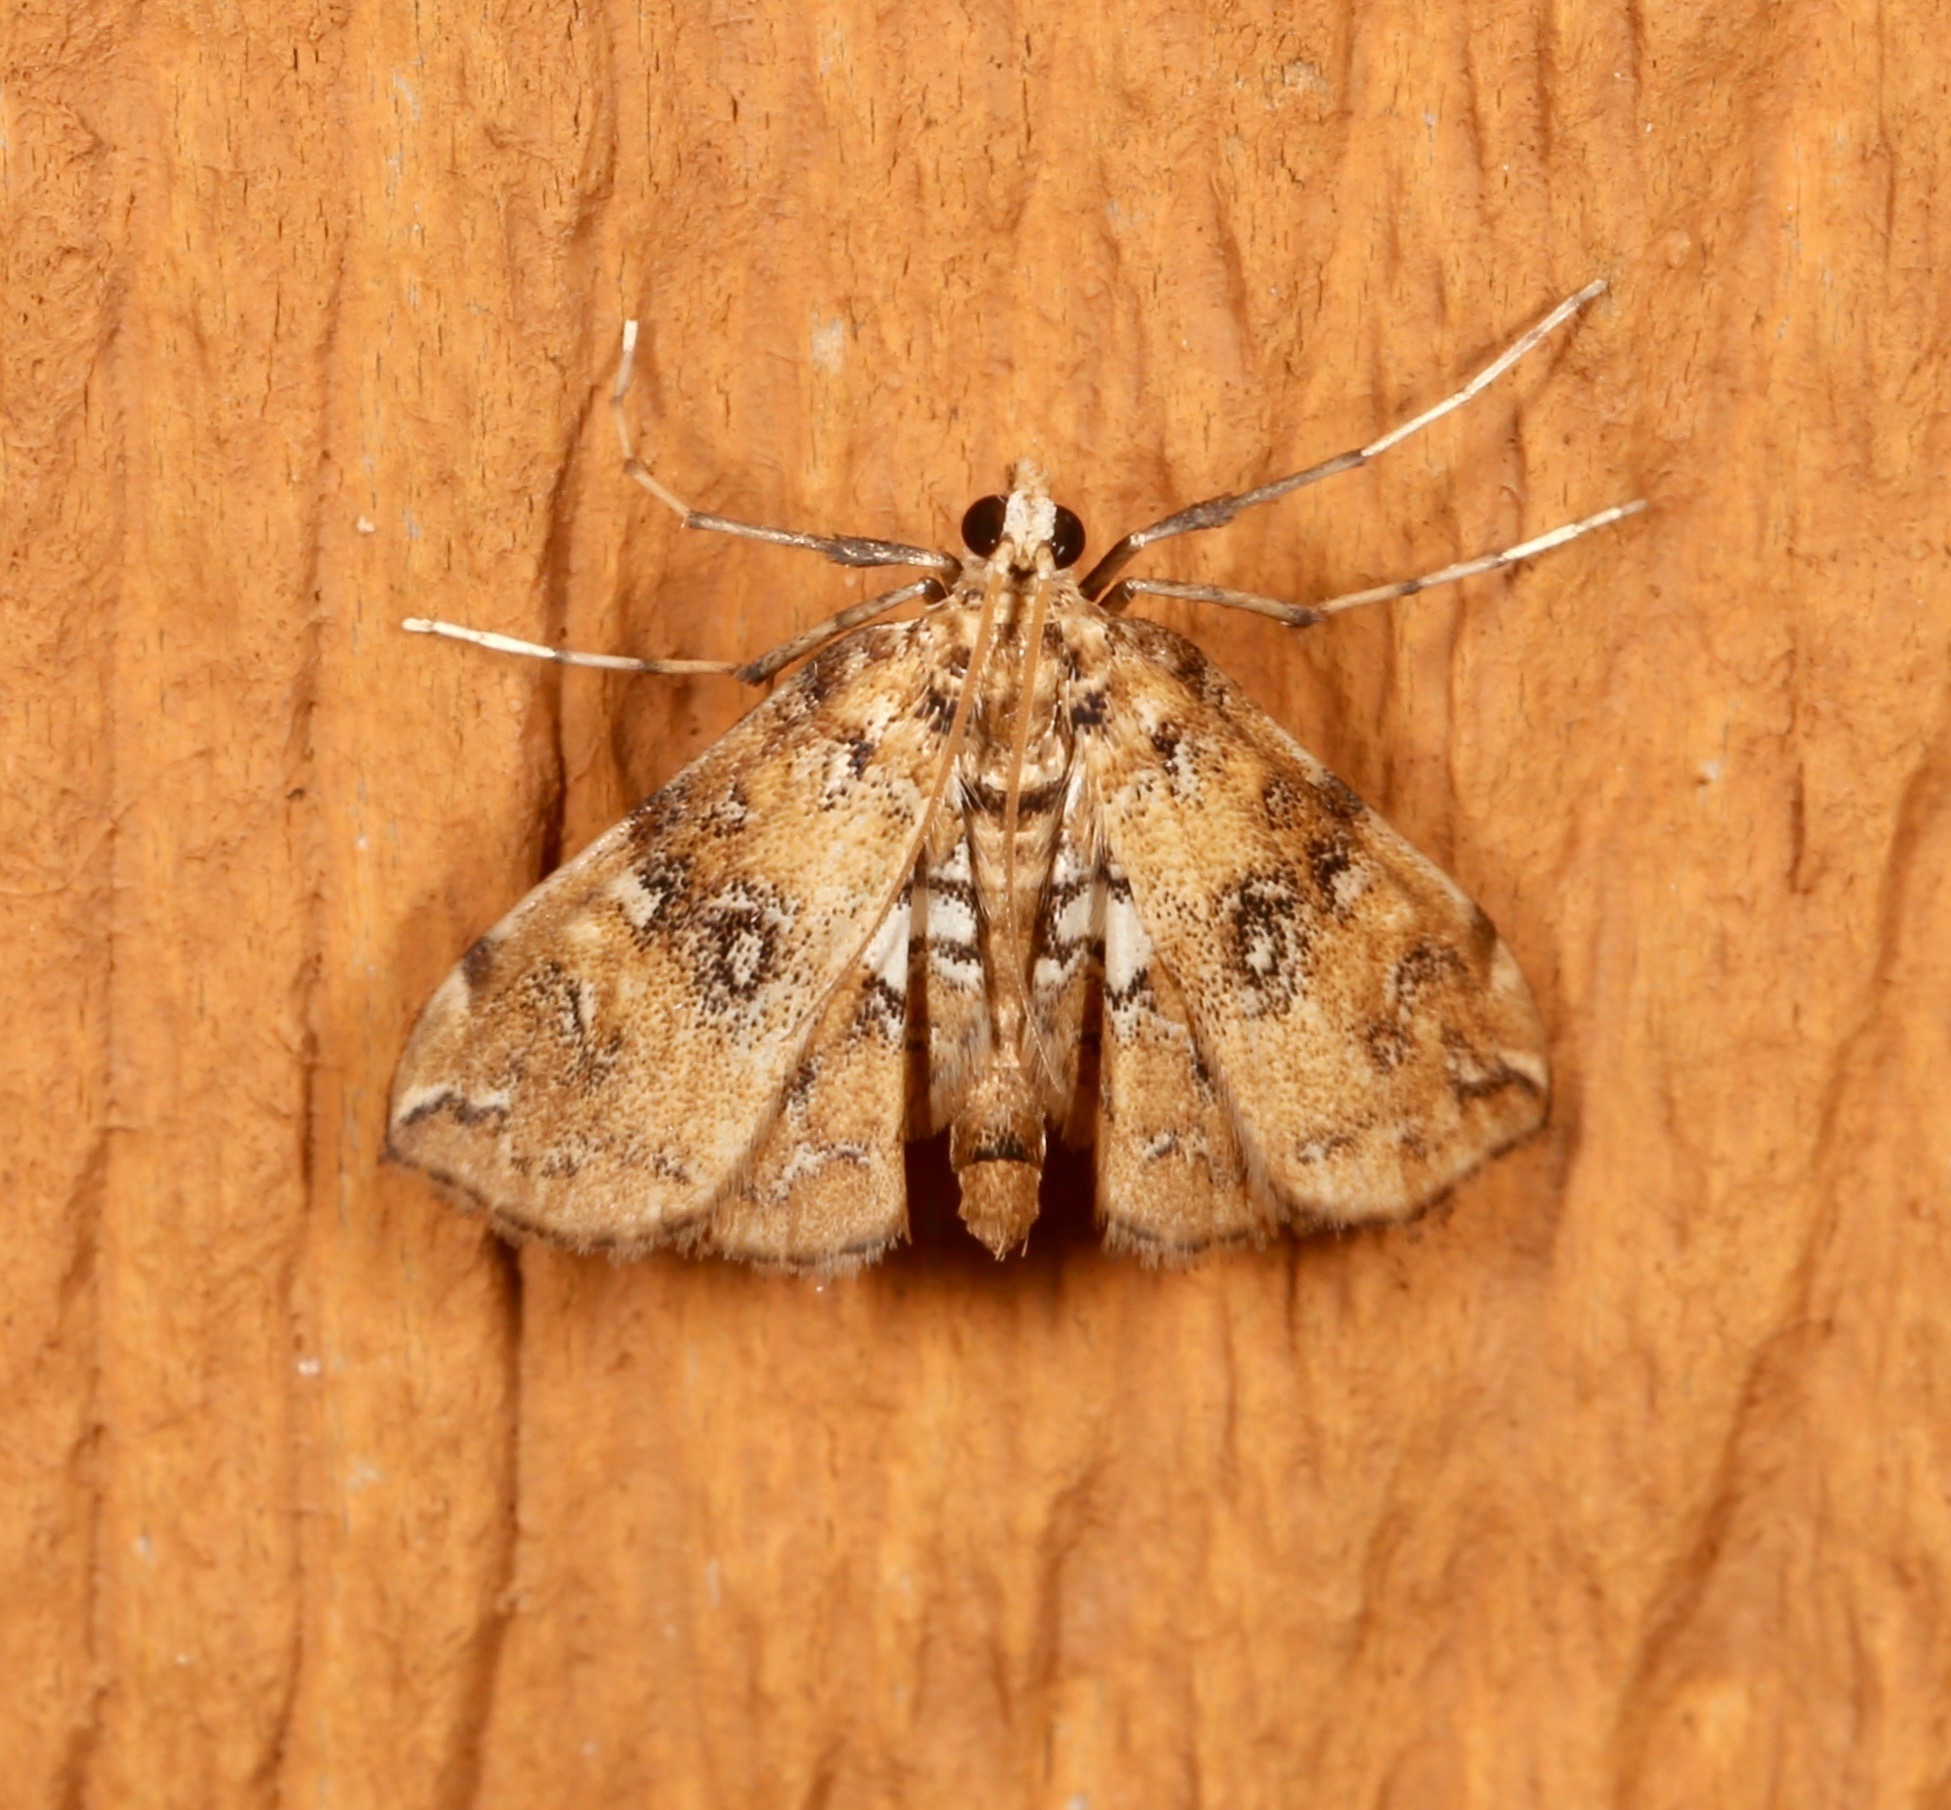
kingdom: Animalia
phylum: Arthropoda
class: Insecta
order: Lepidoptera
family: Crambidae
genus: Elophila
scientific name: Elophila faulalis
